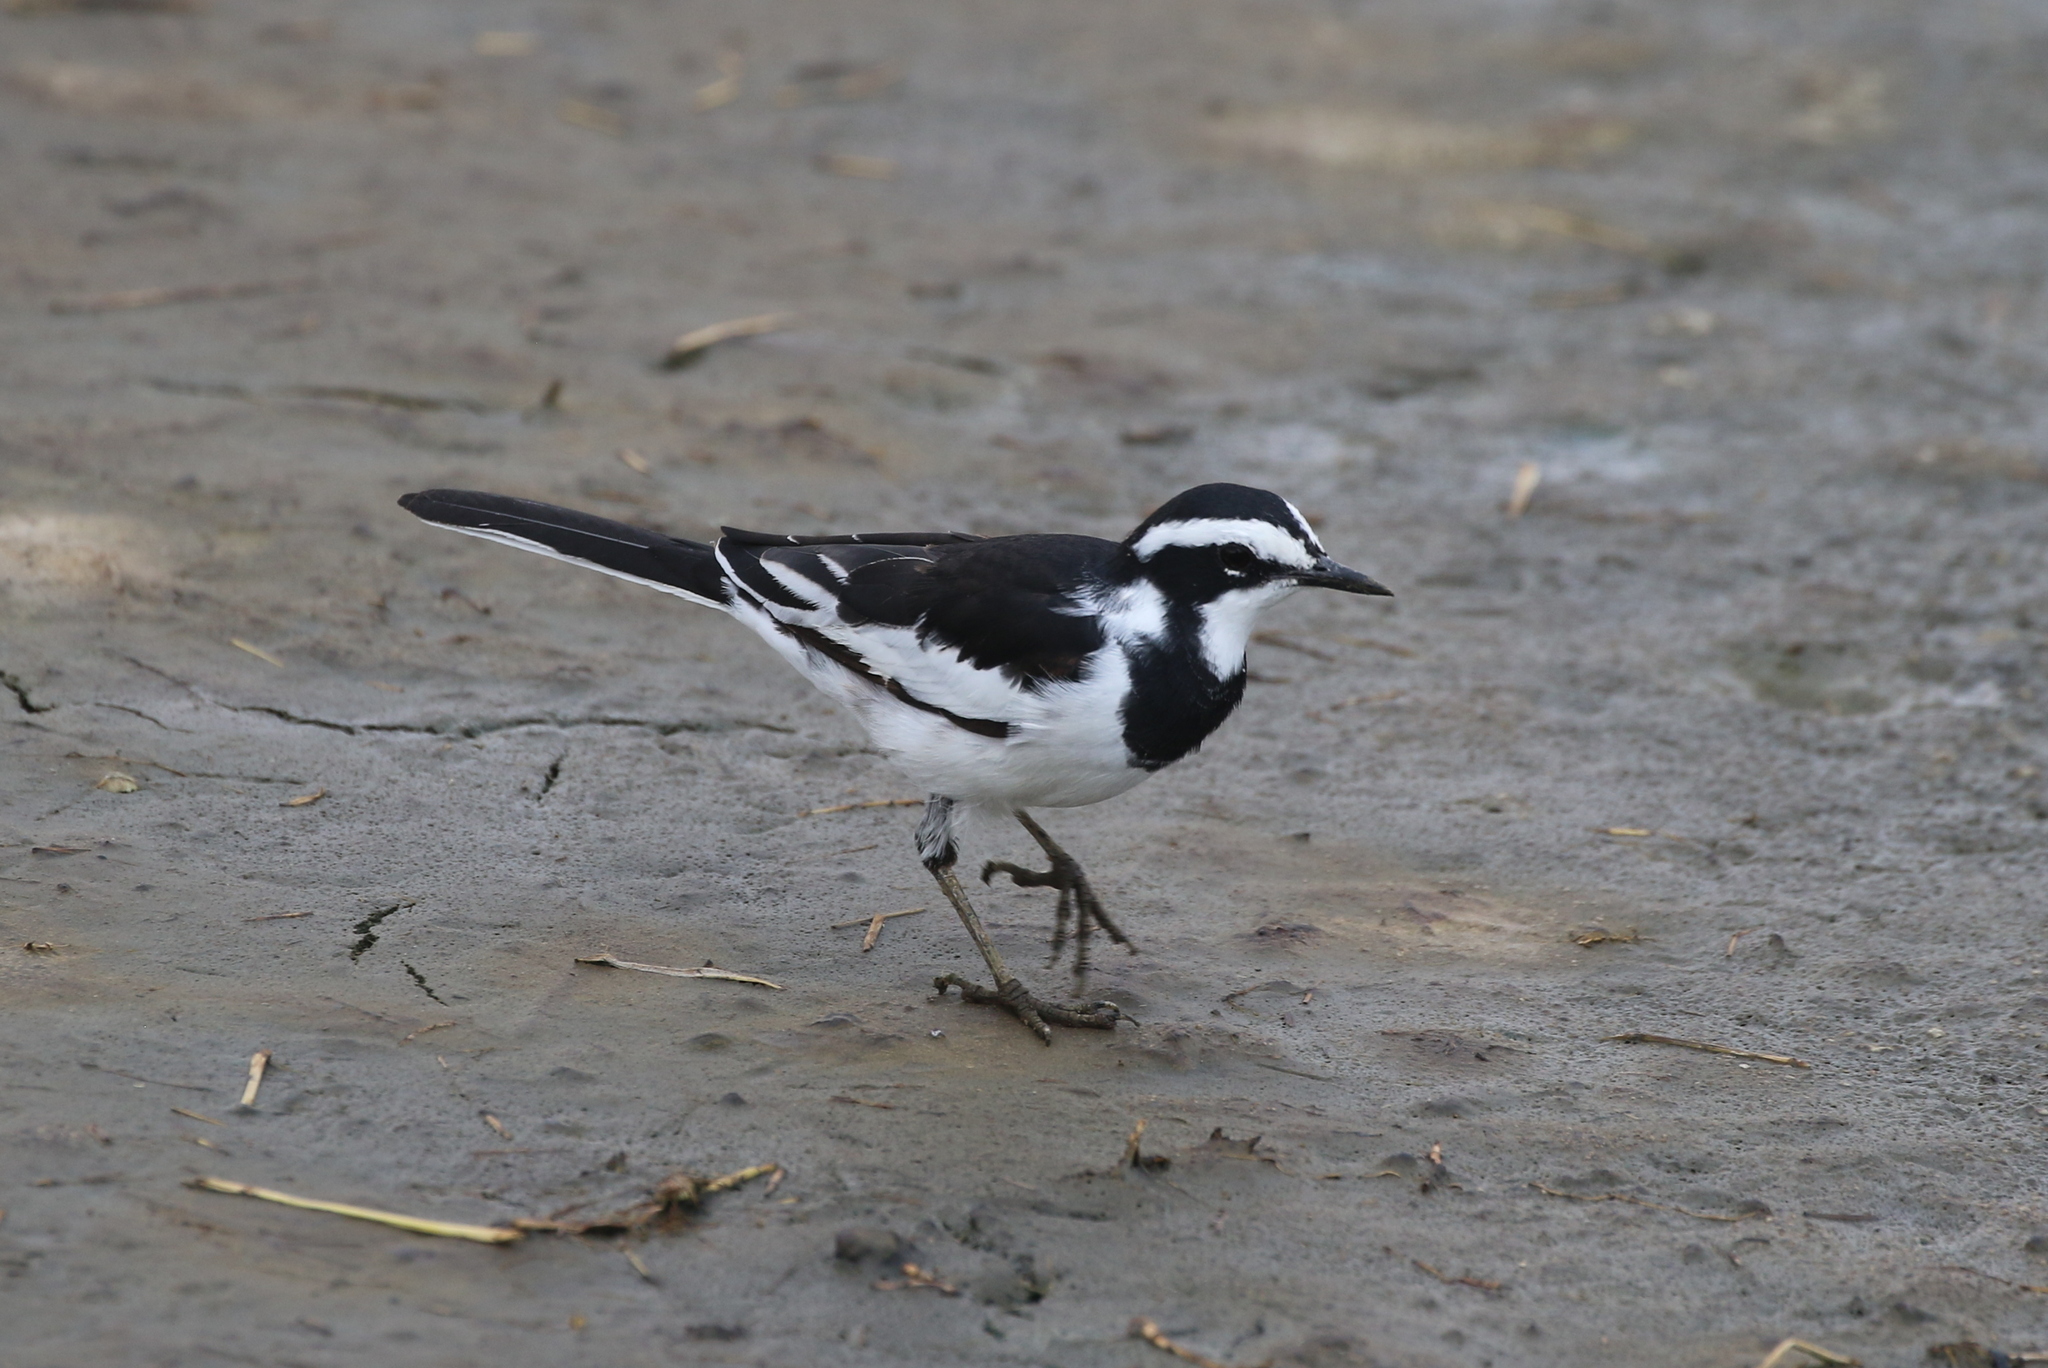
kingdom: Animalia
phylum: Chordata
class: Aves
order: Passeriformes
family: Motacillidae
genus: Motacilla
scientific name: Motacilla aguimp
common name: African pied wagtail
